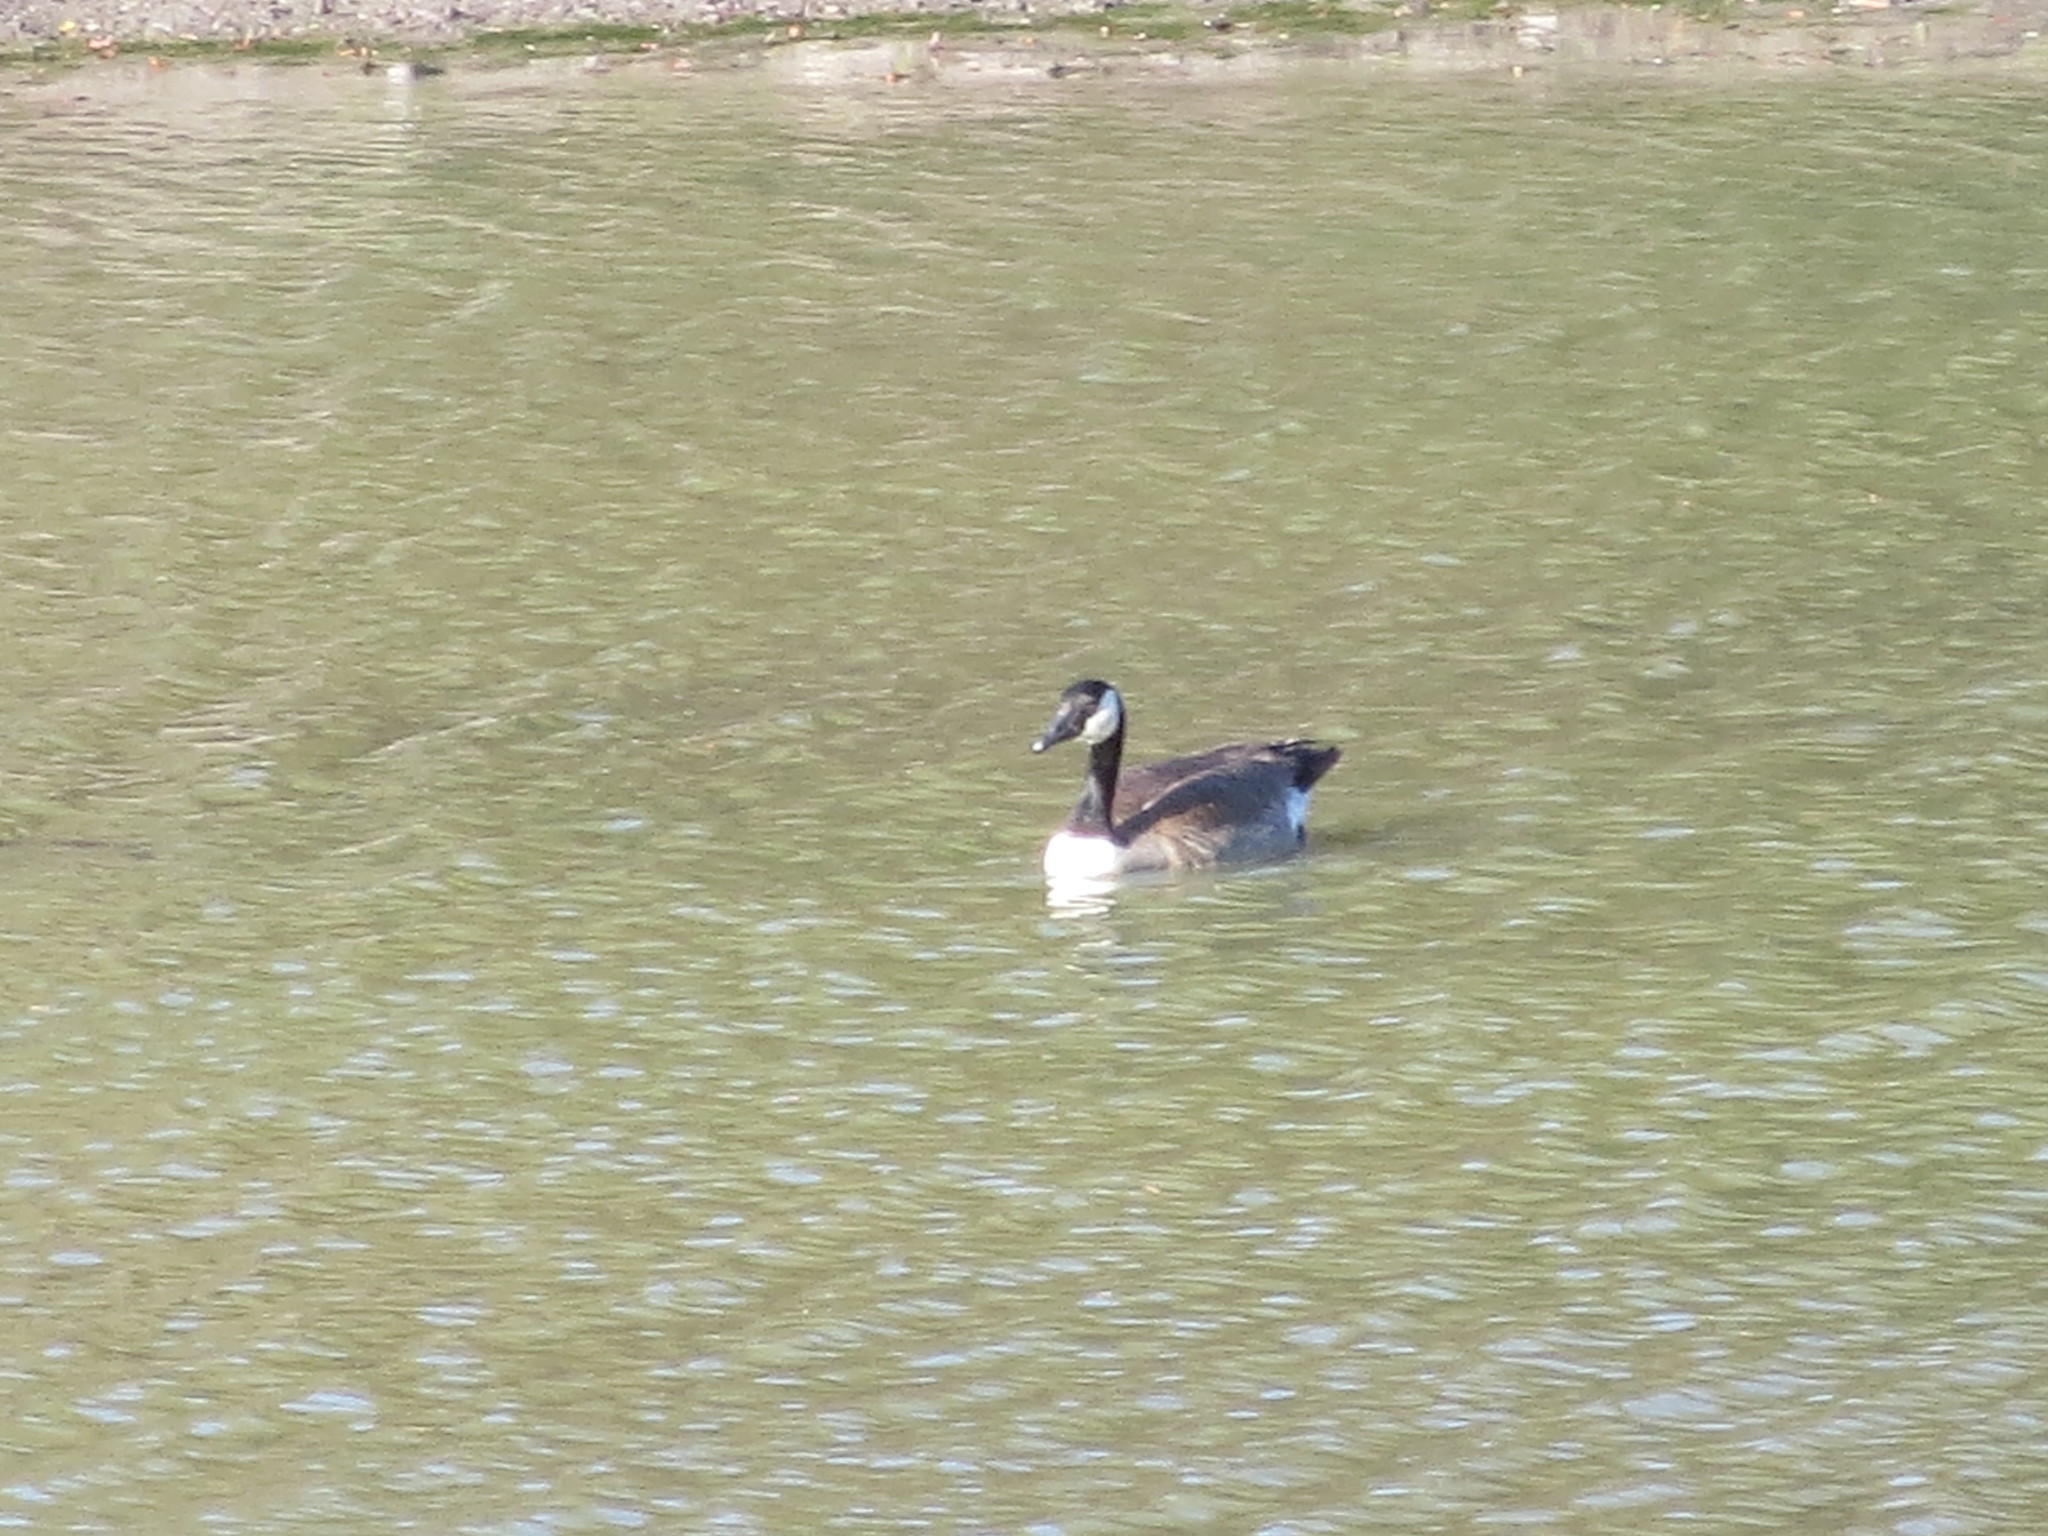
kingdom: Animalia
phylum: Chordata
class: Aves
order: Anseriformes
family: Anatidae
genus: Branta
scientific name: Branta canadensis
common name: Canada goose
